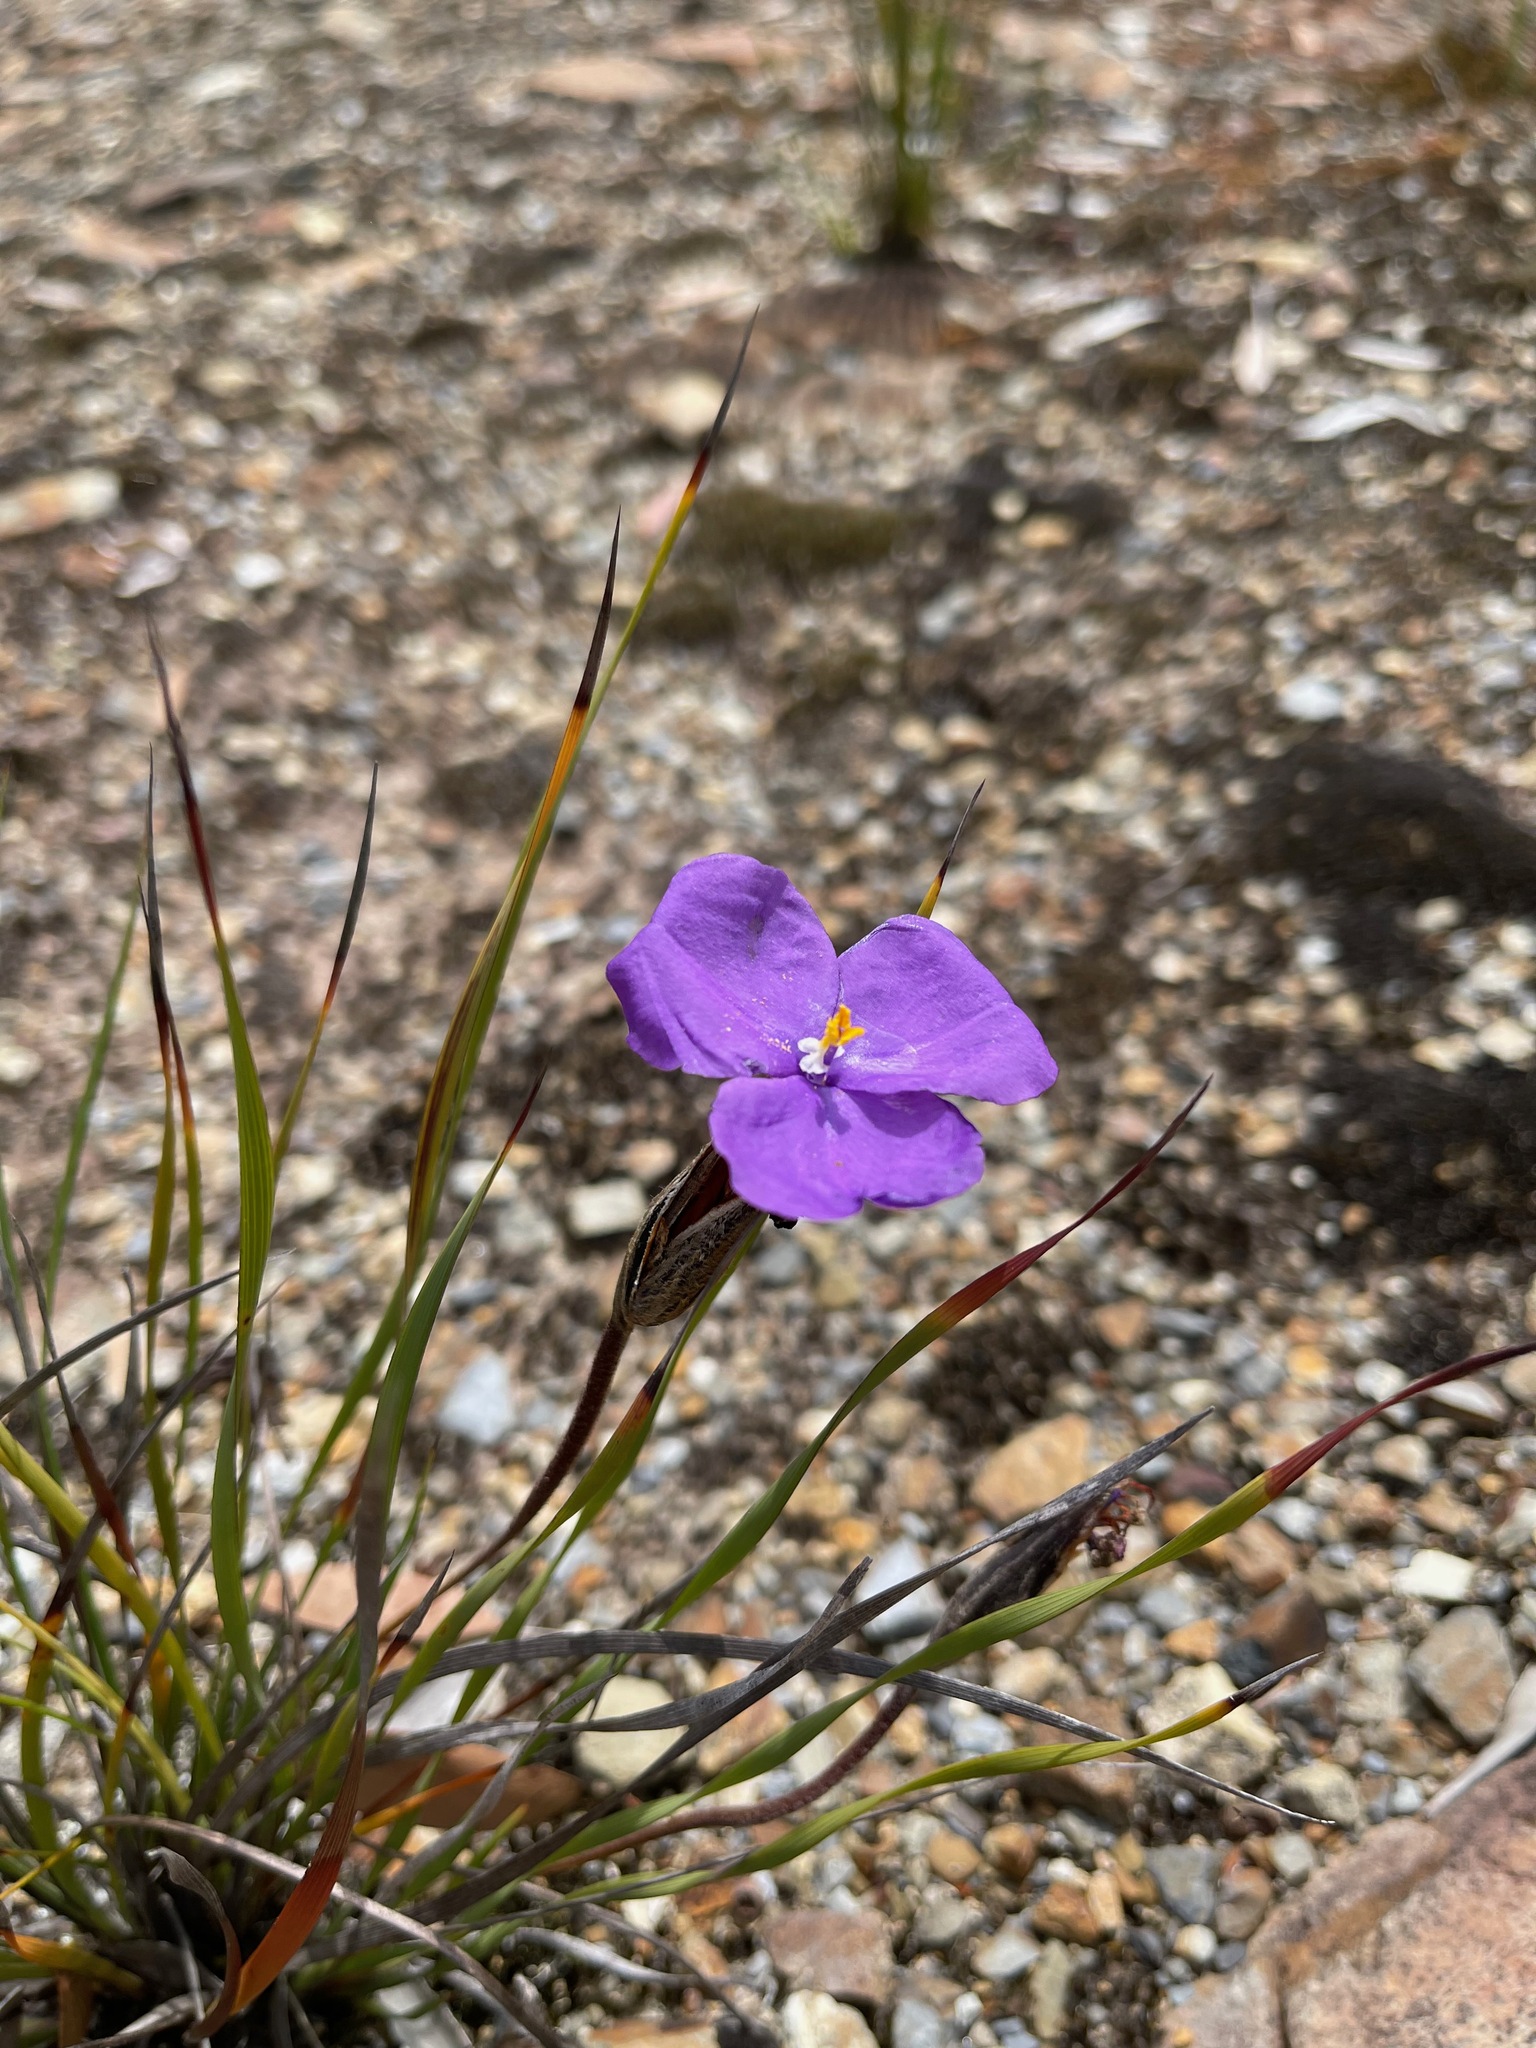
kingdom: Plantae
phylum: Tracheophyta
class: Liliopsida
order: Asparagales
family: Iridaceae
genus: Patersonia
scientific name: Patersonia sericea
